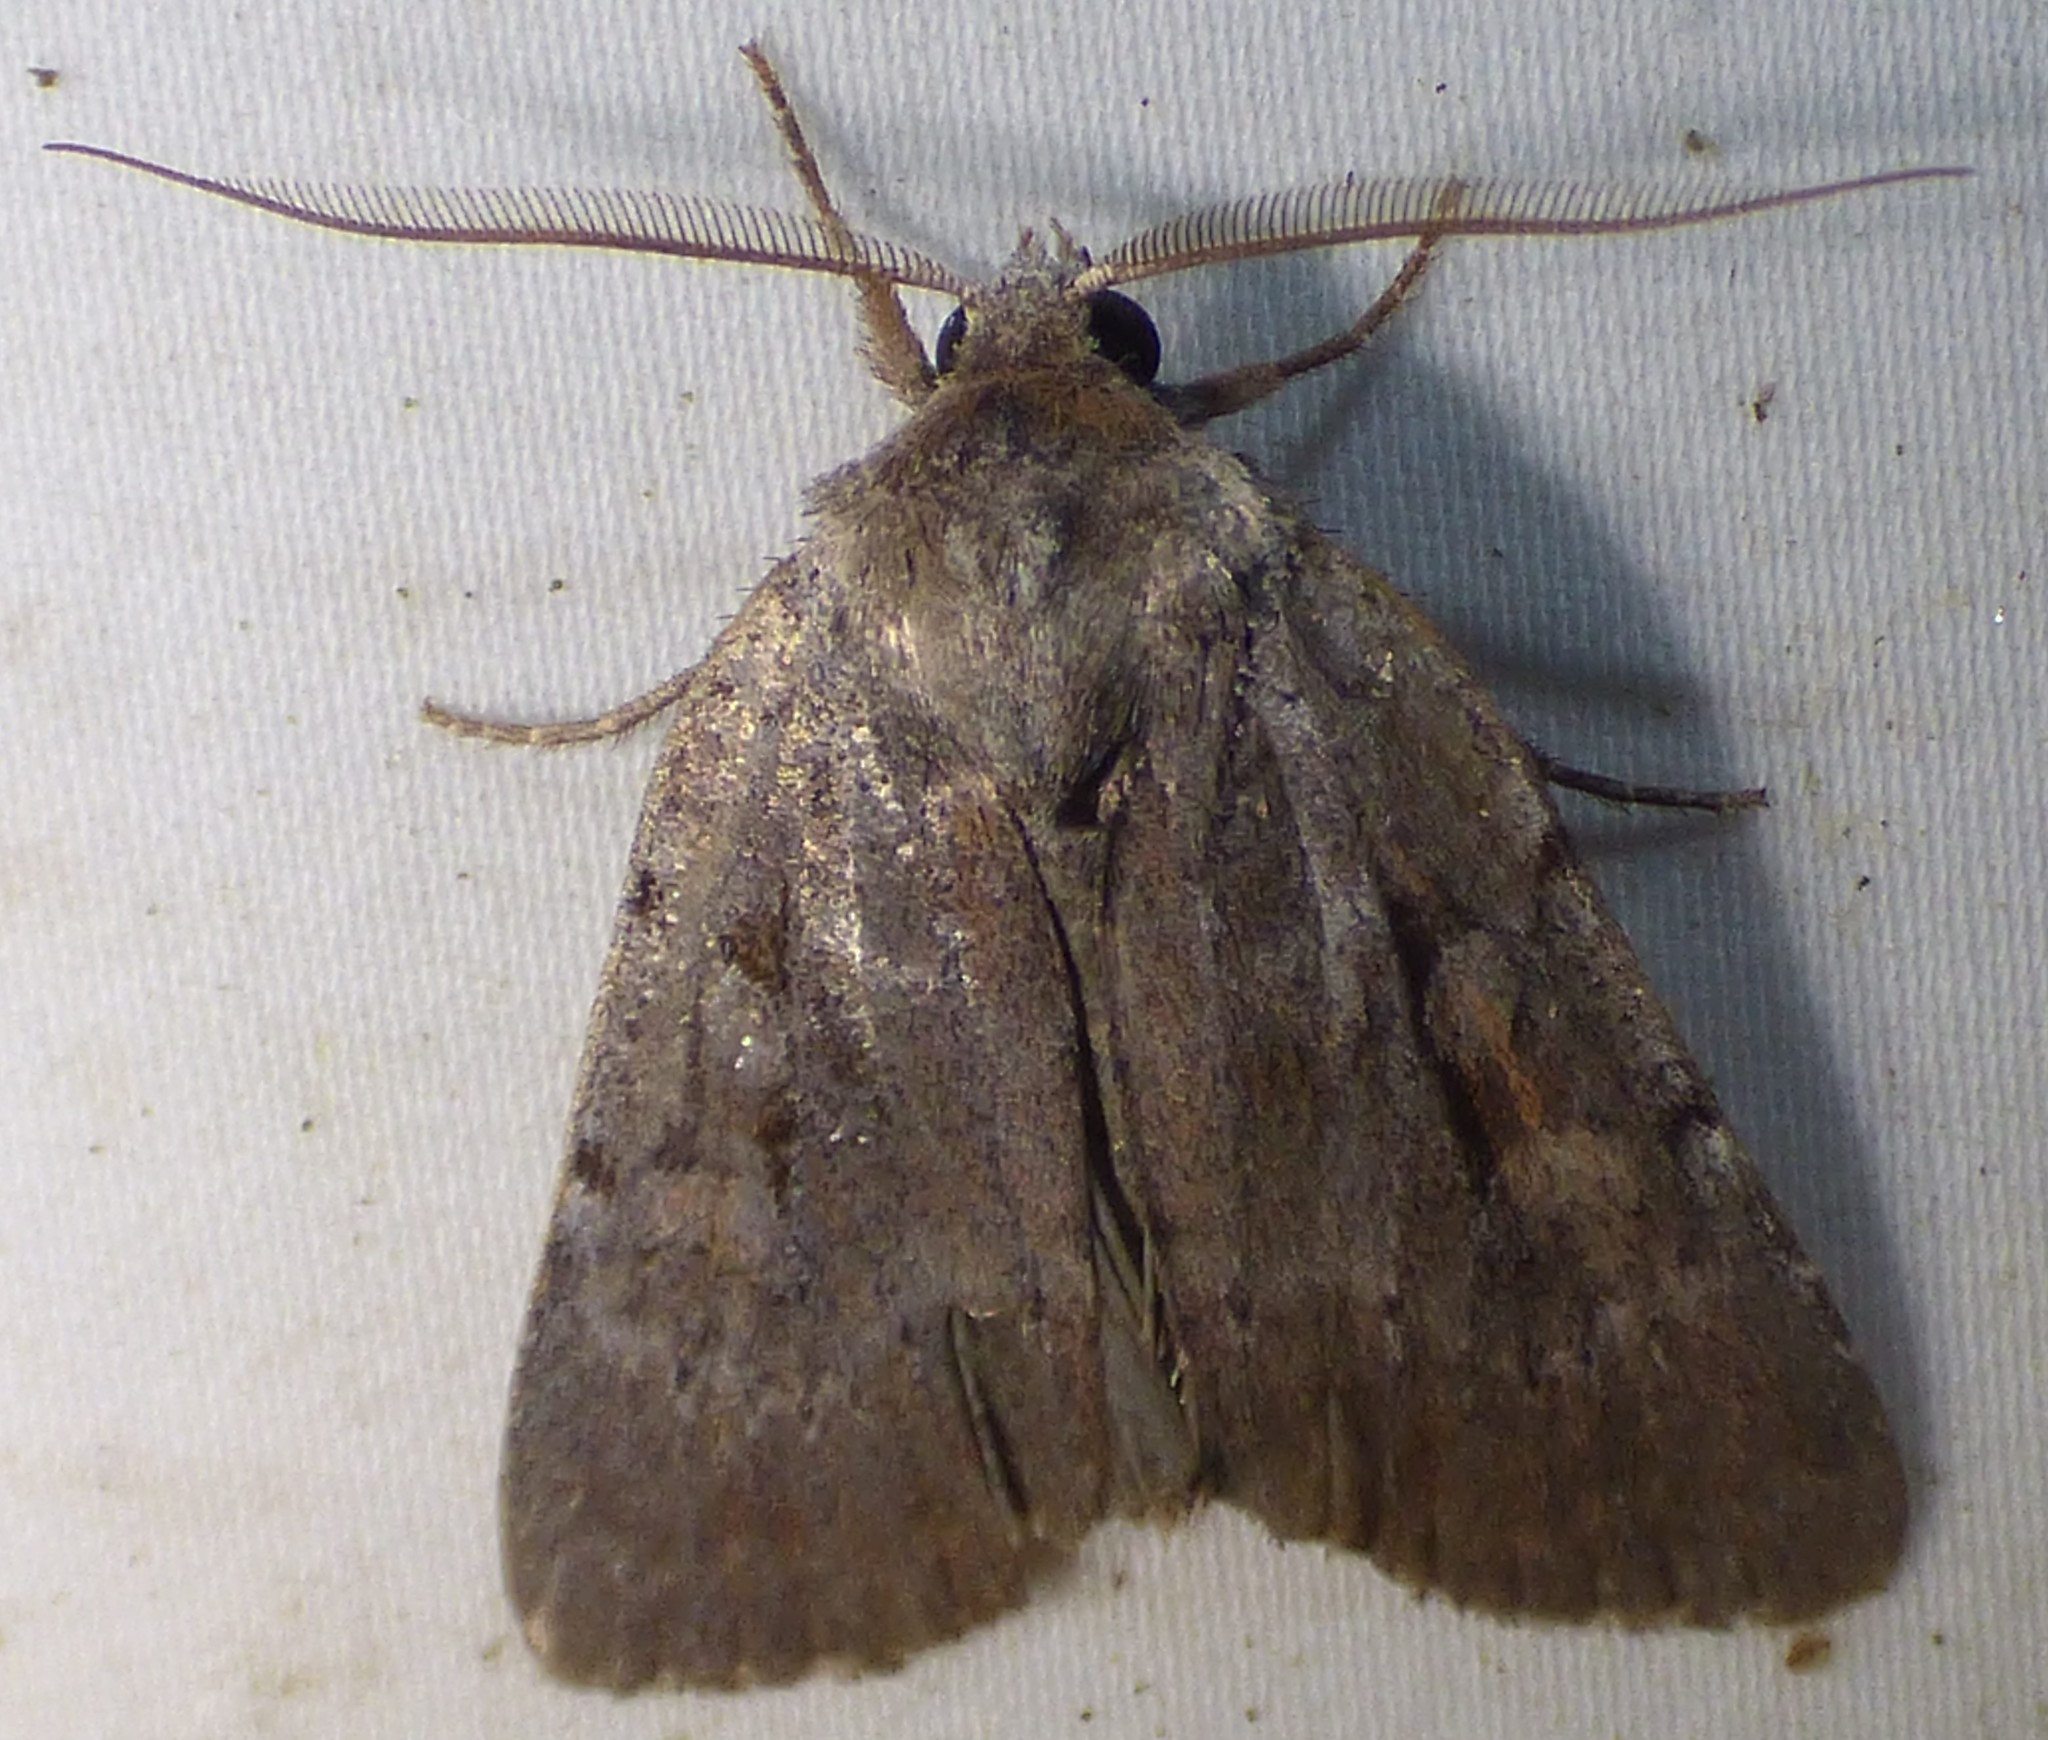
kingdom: Animalia
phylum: Arthropoda
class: Insecta
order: Lepidoptera
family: Noctuidae
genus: Xestia
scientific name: Xestia elimata
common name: Chameleon caterpillar
